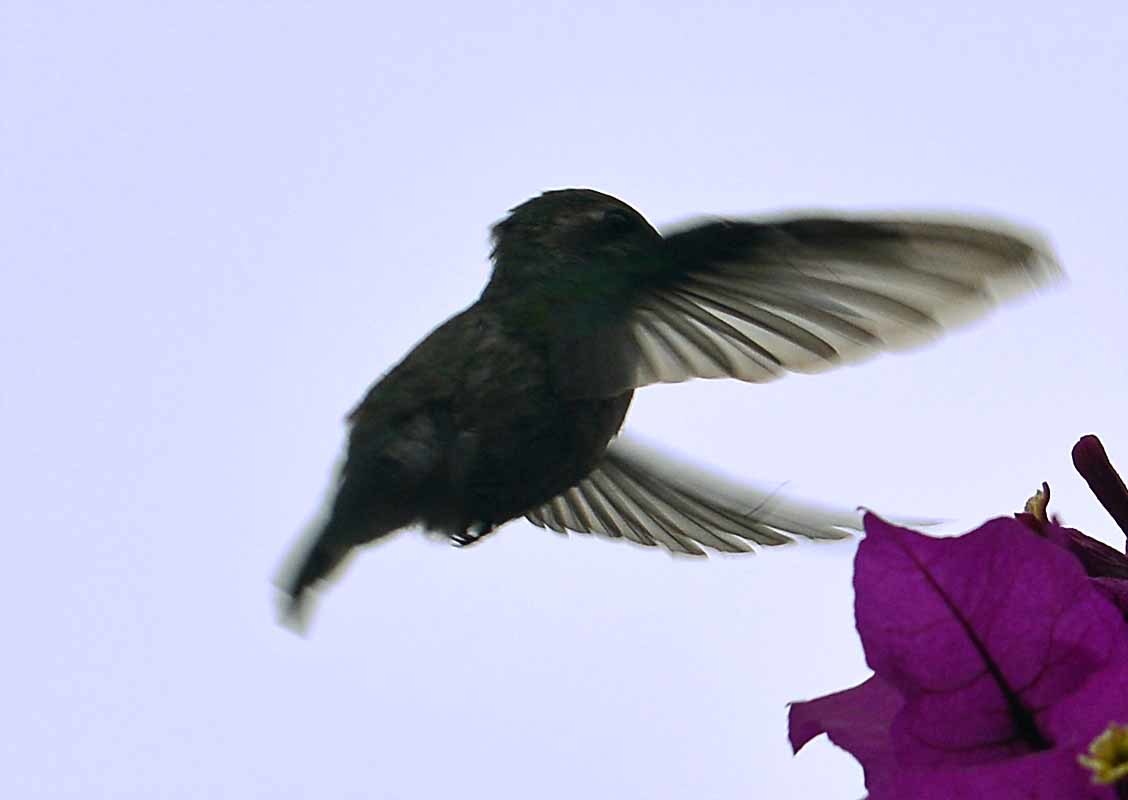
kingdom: Animalia
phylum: Chordata
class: Aves
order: Apodiformes
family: Trochilidae
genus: Cynanthus
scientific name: Cynanthus latirostris
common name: Broad-billed hummingbird
